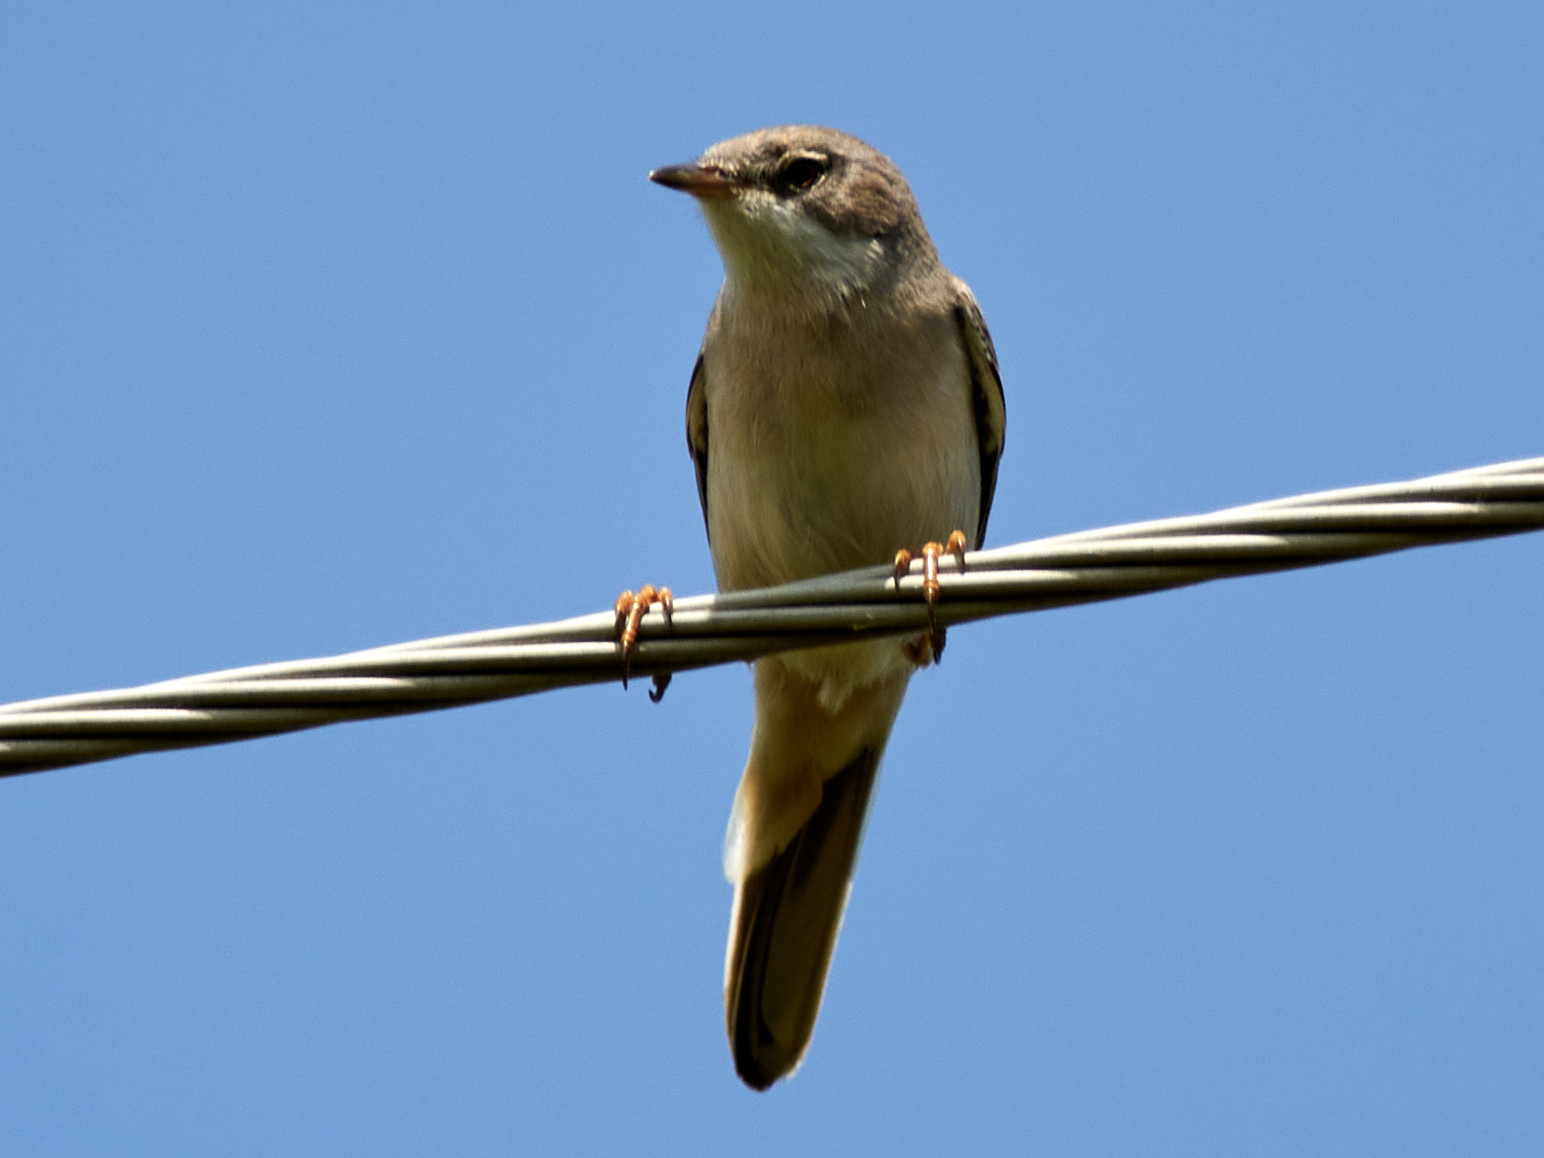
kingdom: Animalia
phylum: Chordata
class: Aves
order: Passeriformes
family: Sylviidae
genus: Sylvia
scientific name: Sylvia communis
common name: Common whitethroat
